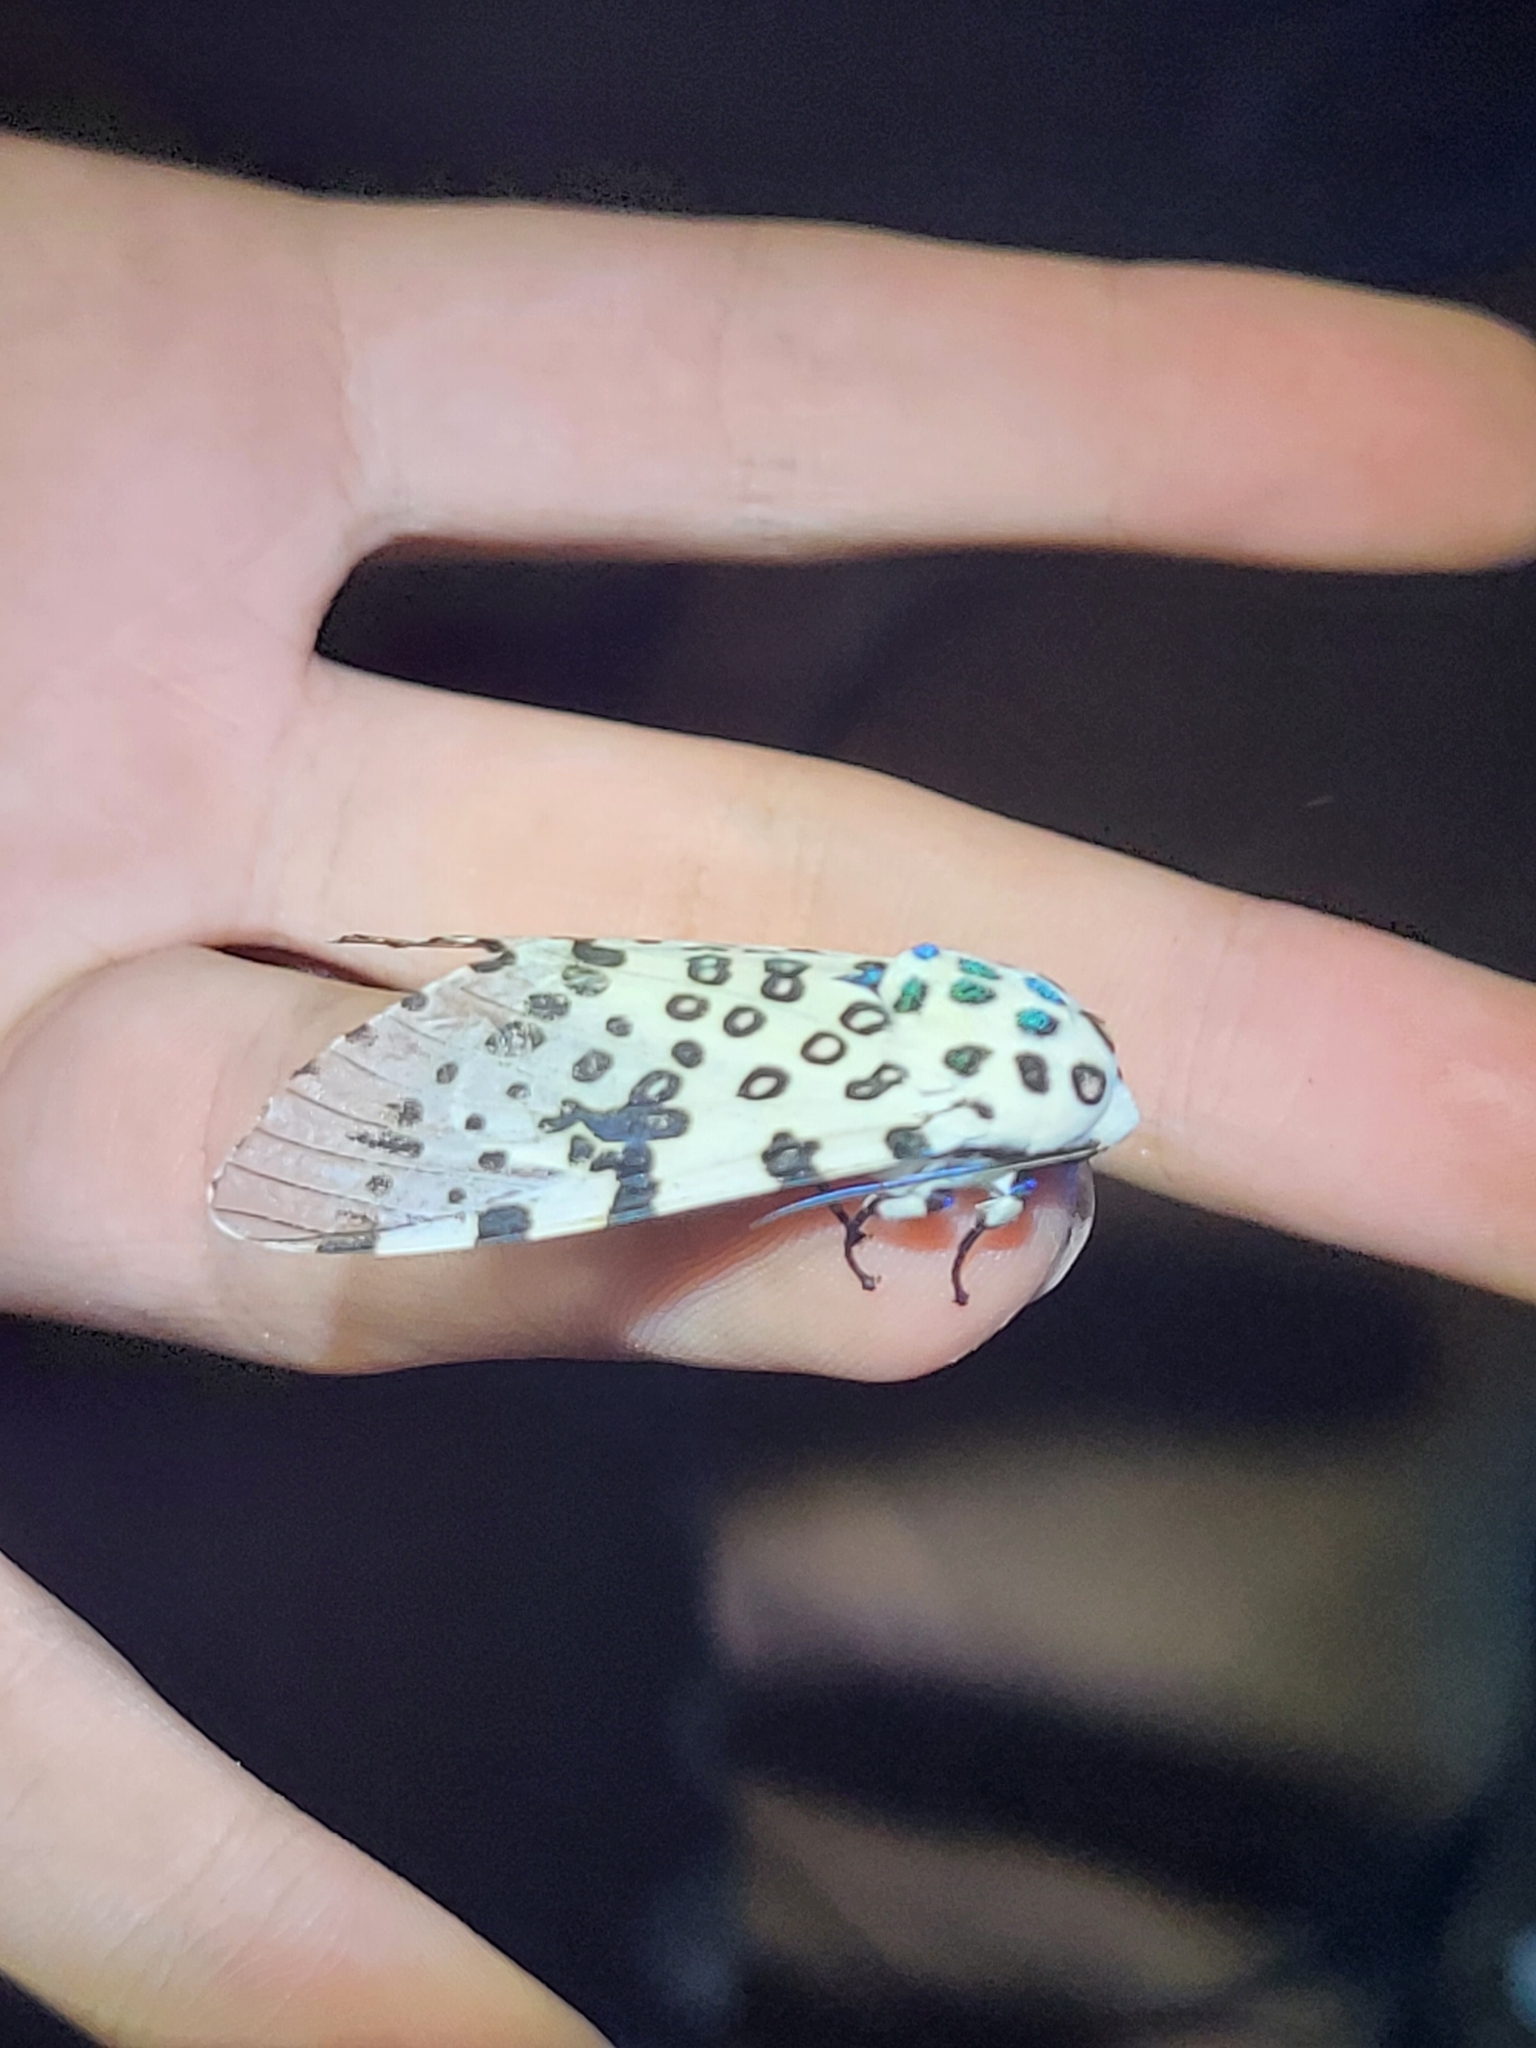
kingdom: Animalia
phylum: Arthropoda
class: Insecta
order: Lepidoptera
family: Erebidae
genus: Hypercompe
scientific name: Hypercompe scribonia
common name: Giant leopard moth
